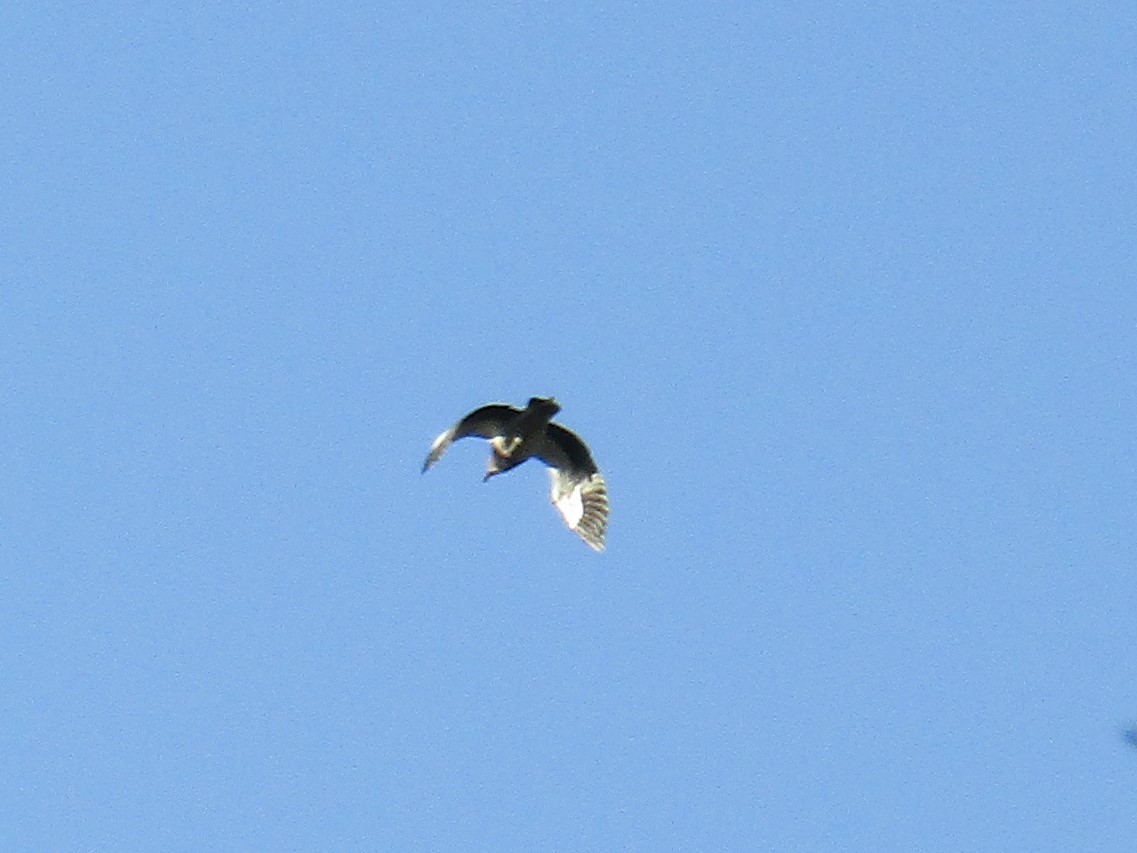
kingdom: Animalia
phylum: Chordata
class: Aves
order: Charadriiformes
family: Charadriidae
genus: Vanellus
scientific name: Vanellus chilensis
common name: Southern lapwing
